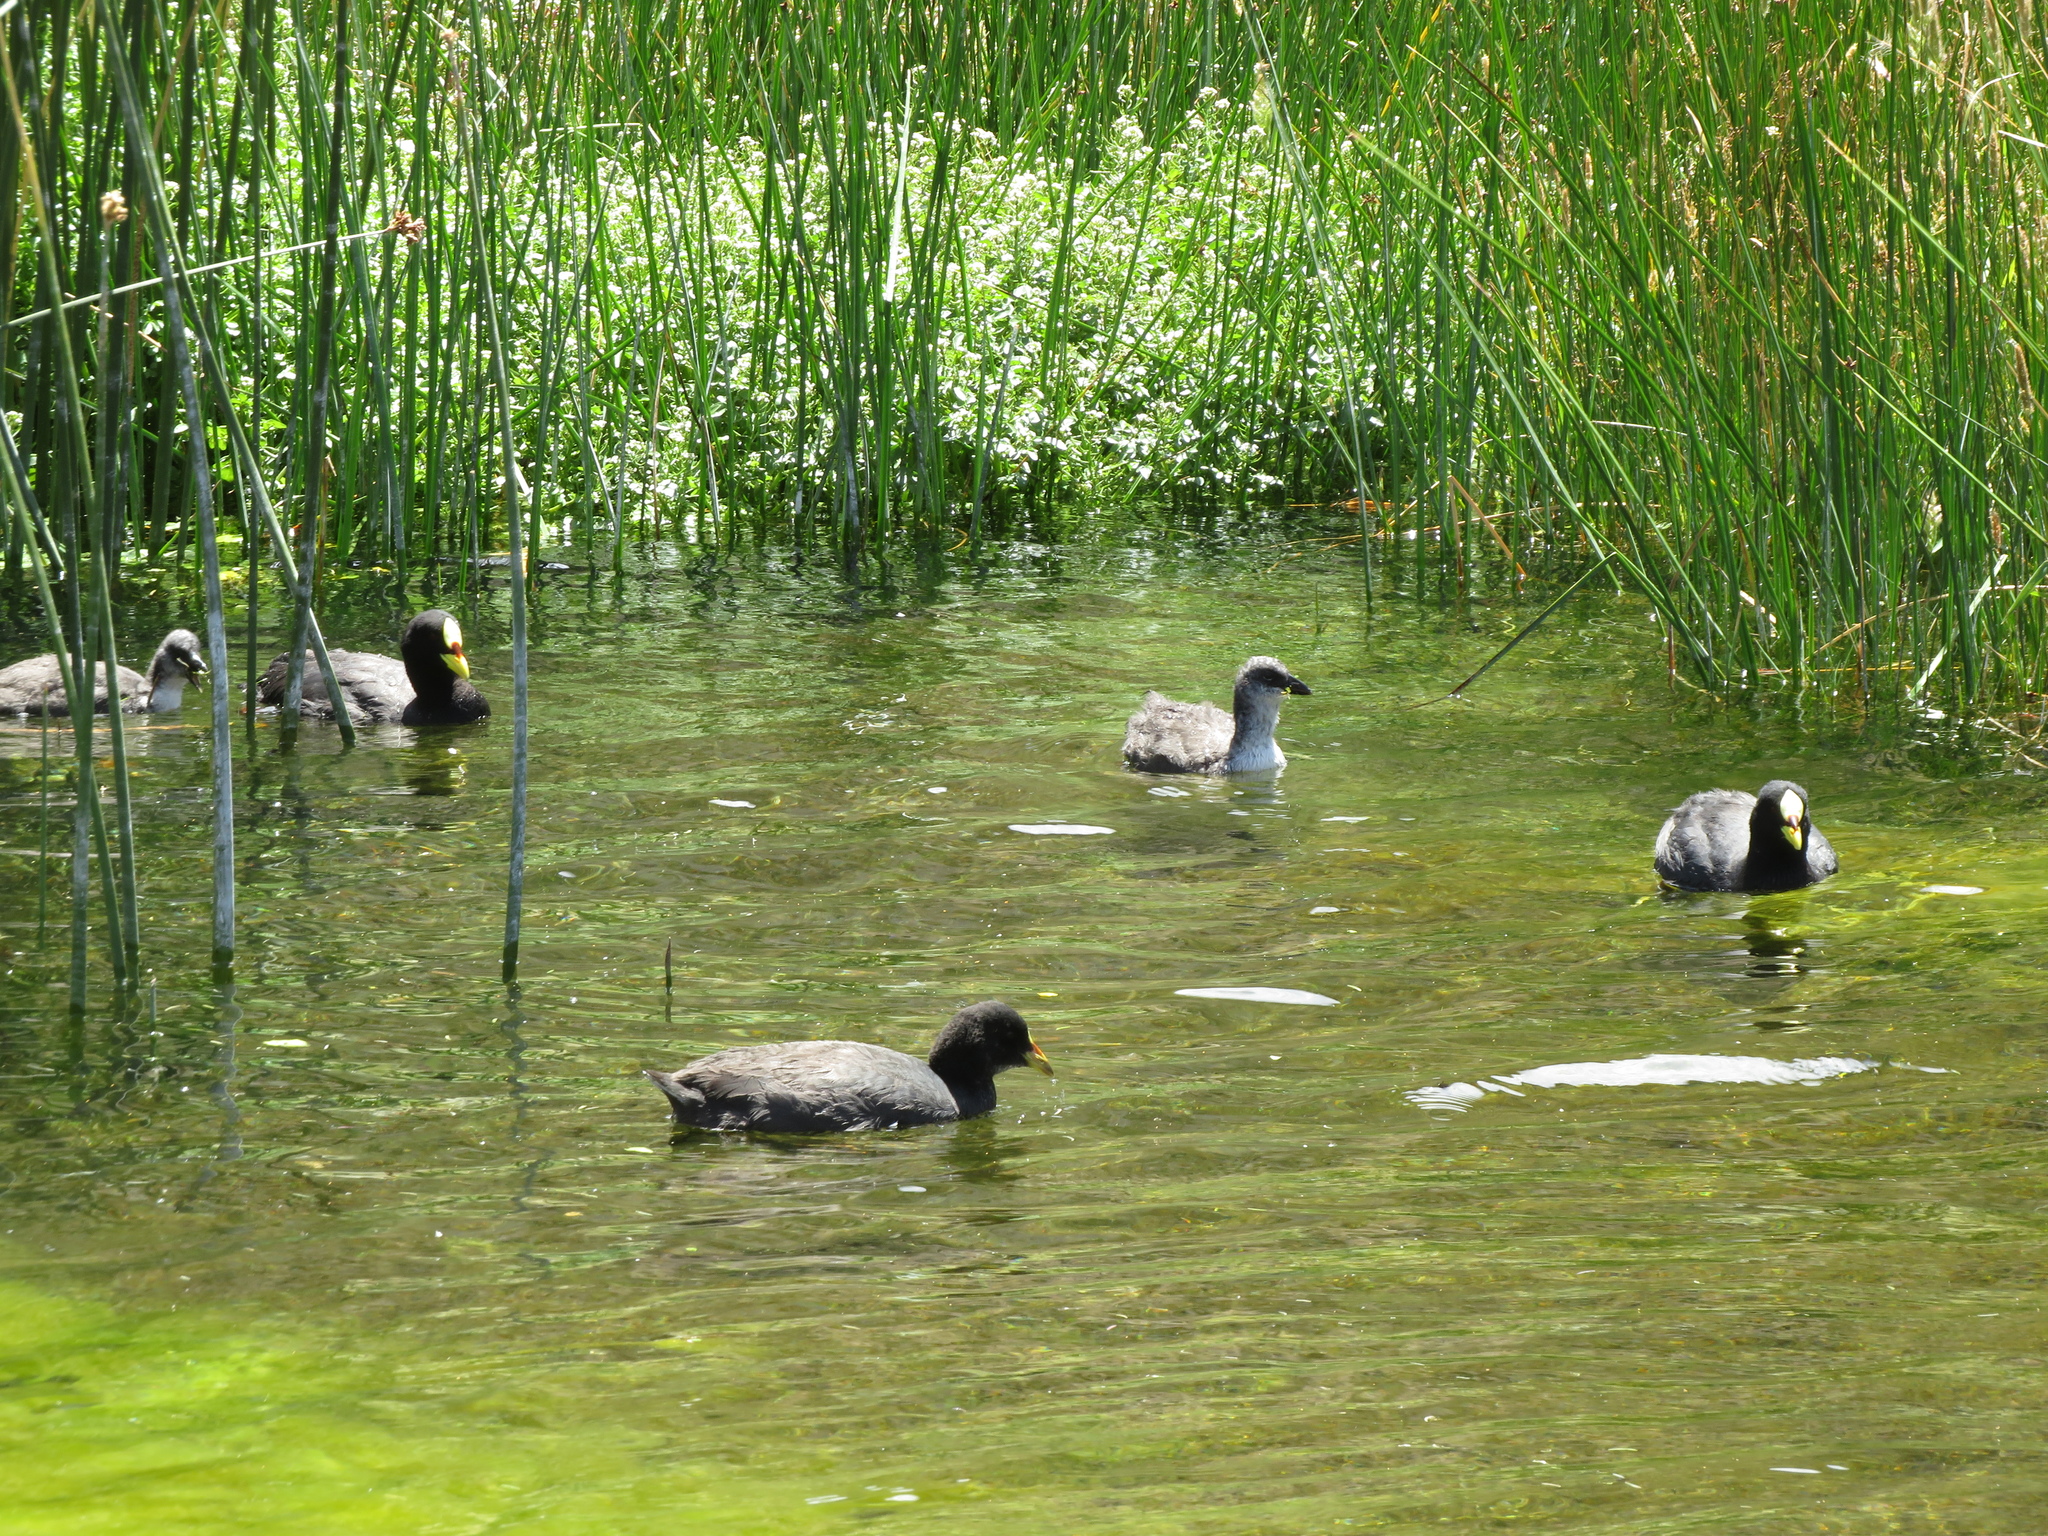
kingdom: Animalia
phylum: Chordata
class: Aves
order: Gruiformes
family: Rallidae
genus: Fulica
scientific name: Fulica armillata
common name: Red-gartered coot
